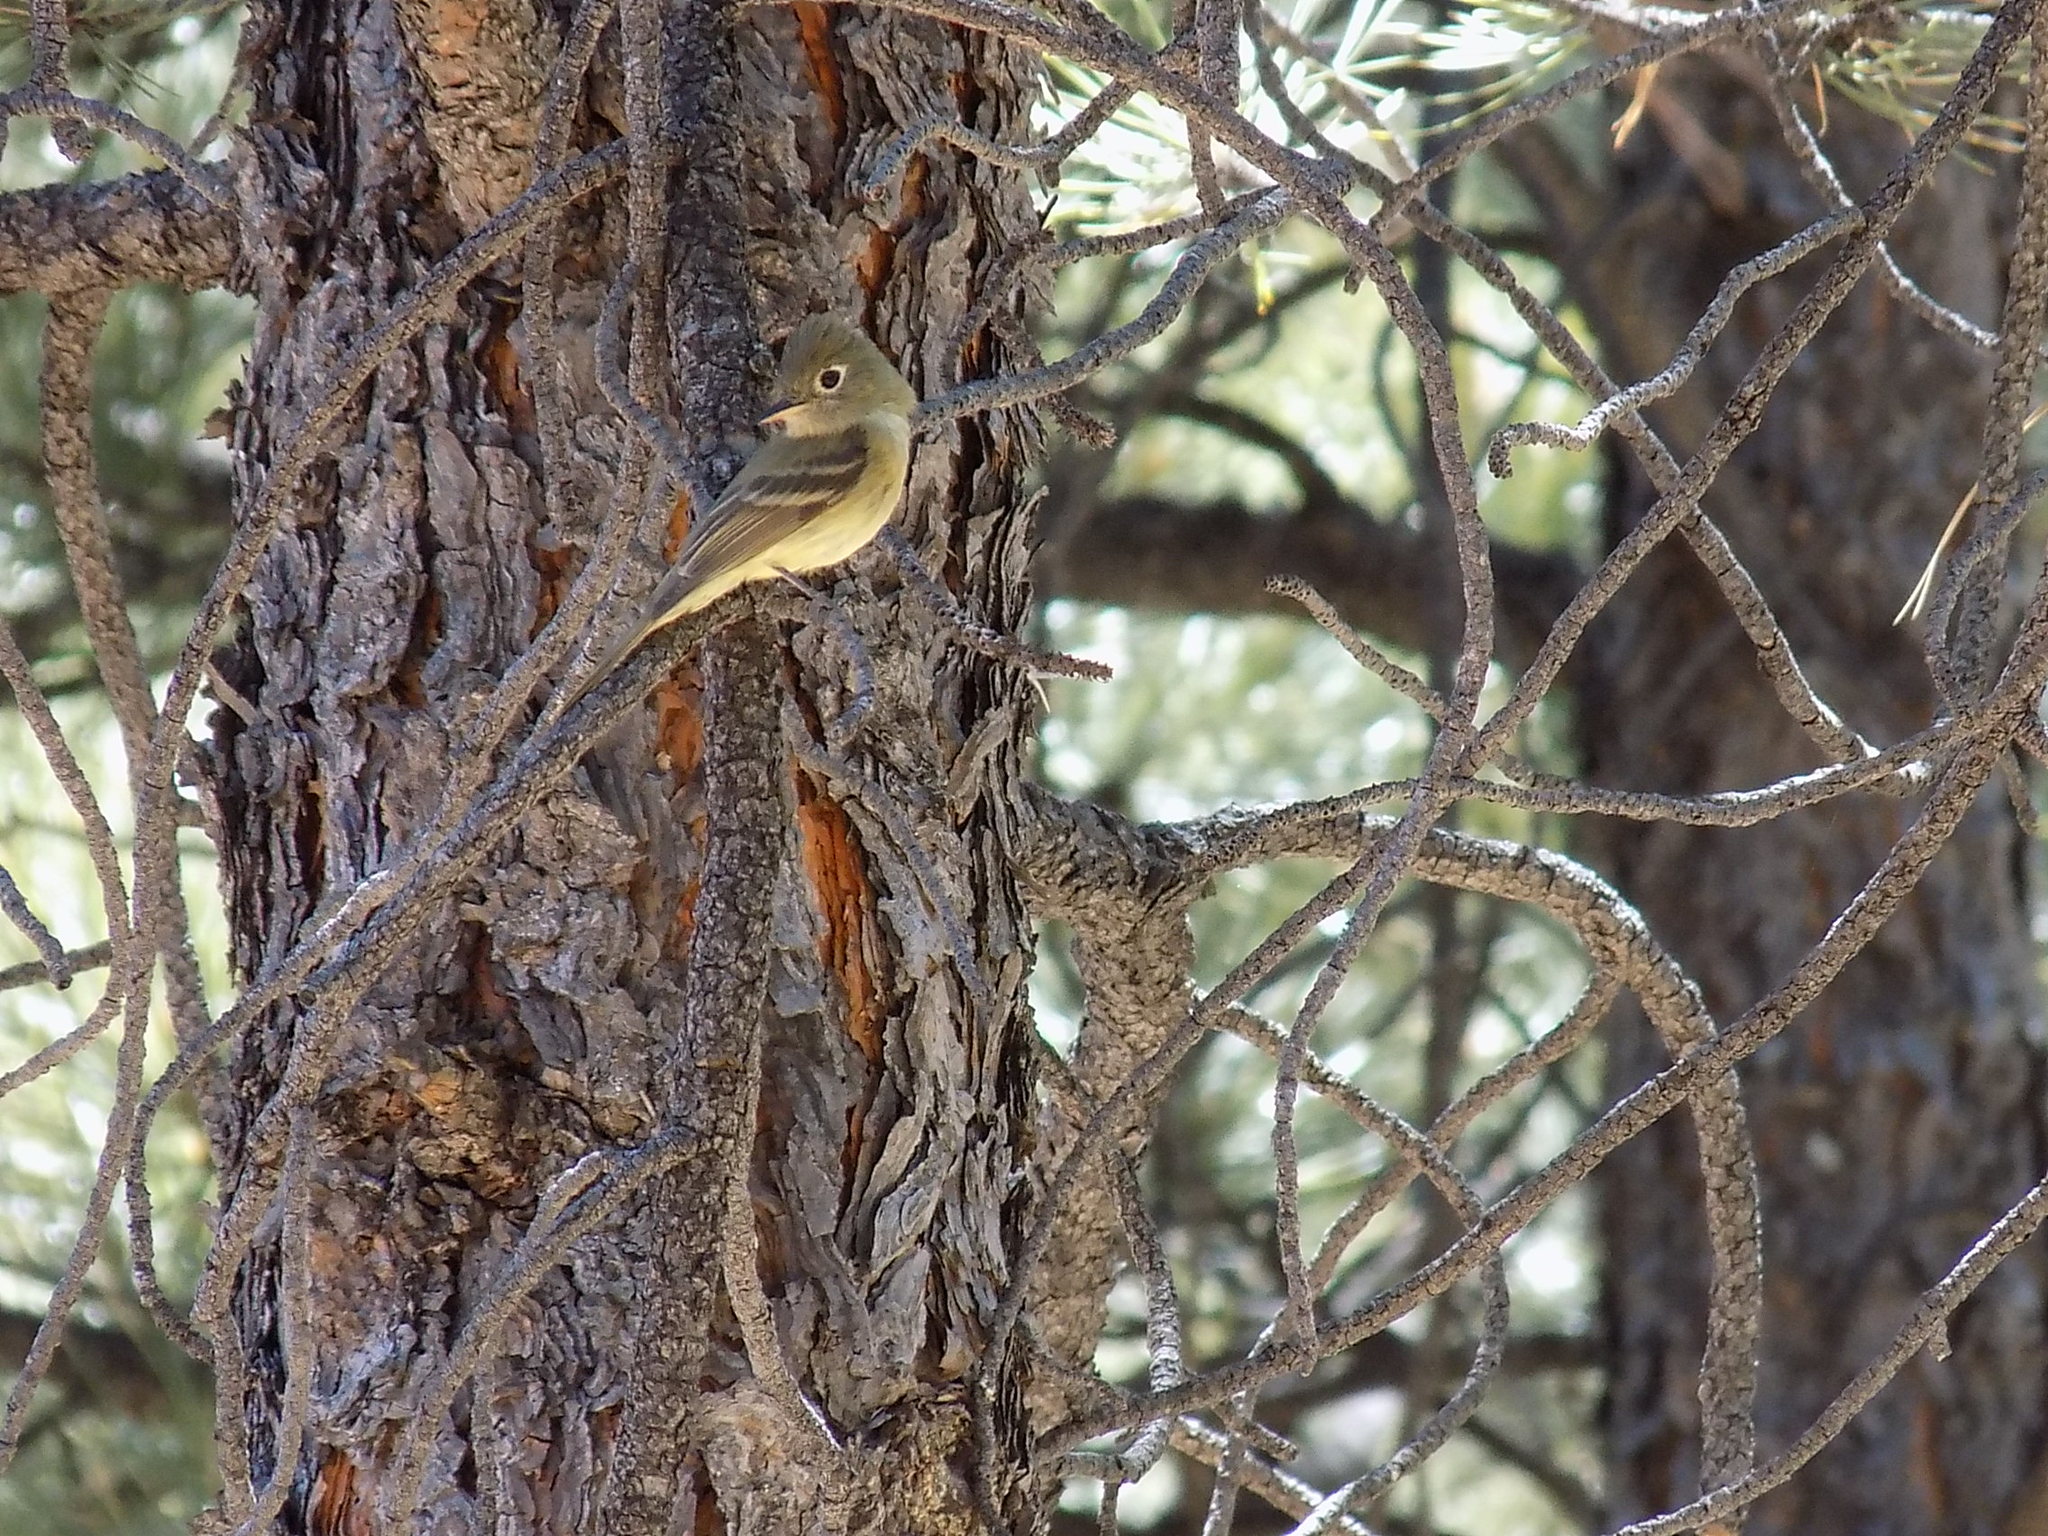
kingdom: Animalia
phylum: Chordata
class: Aves
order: Passeriformes
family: Tyrannidae
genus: Empidonax
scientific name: Empidonax difficilis
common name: Pacific-slope flycatcher
